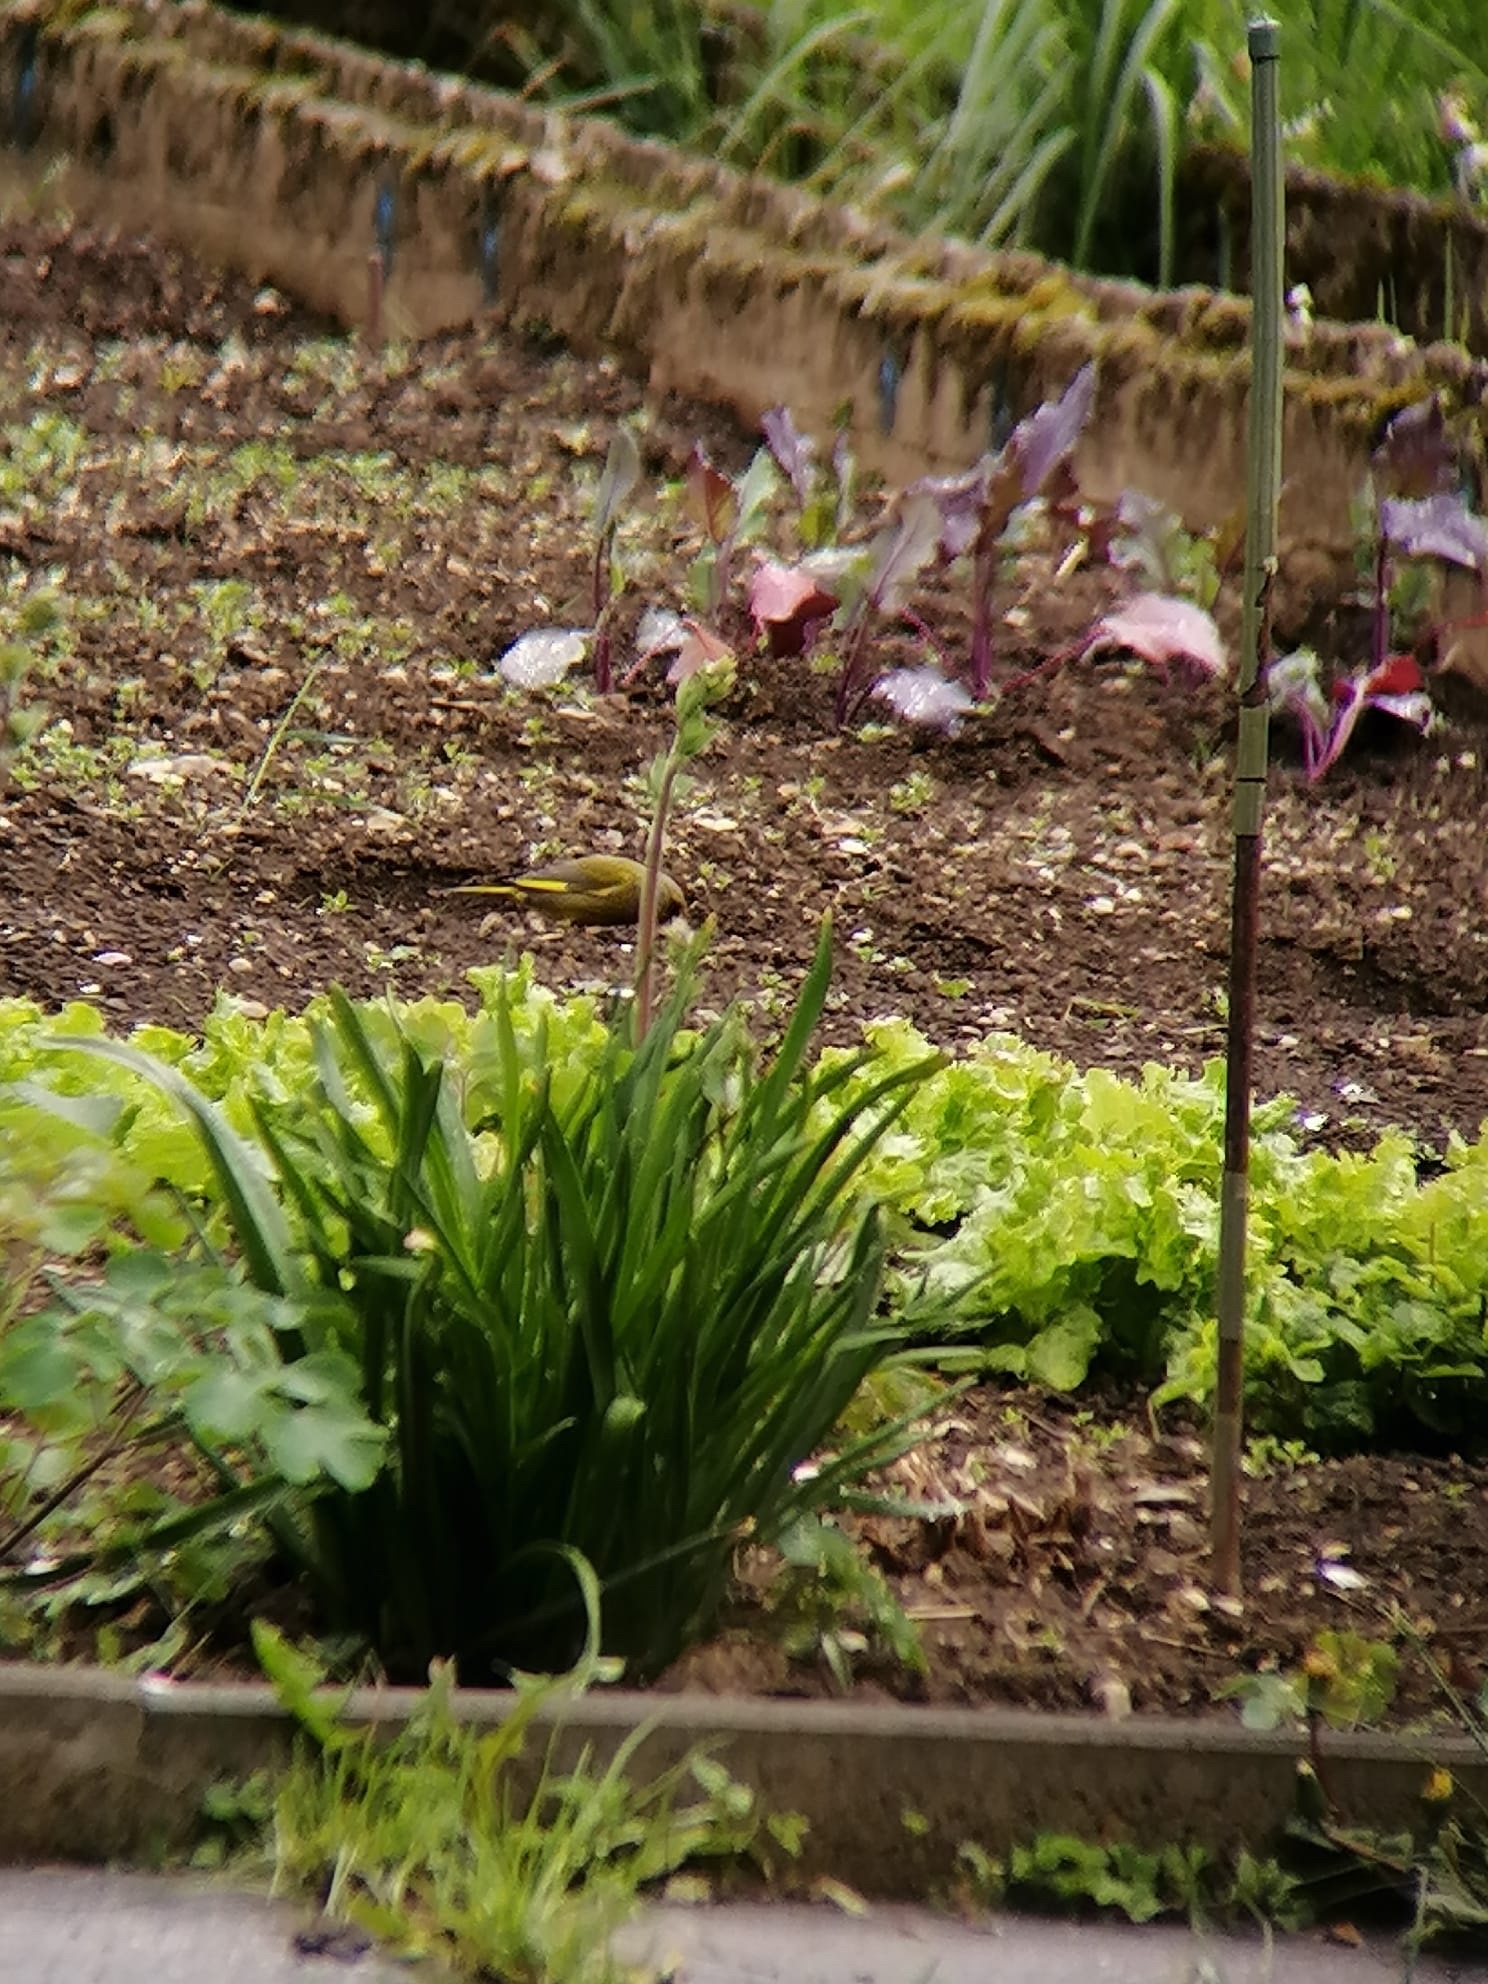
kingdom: Plantae
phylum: Tracheophyta
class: Liliopsida
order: Poales
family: Poaceae
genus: Chloris
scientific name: Chloris chloris
